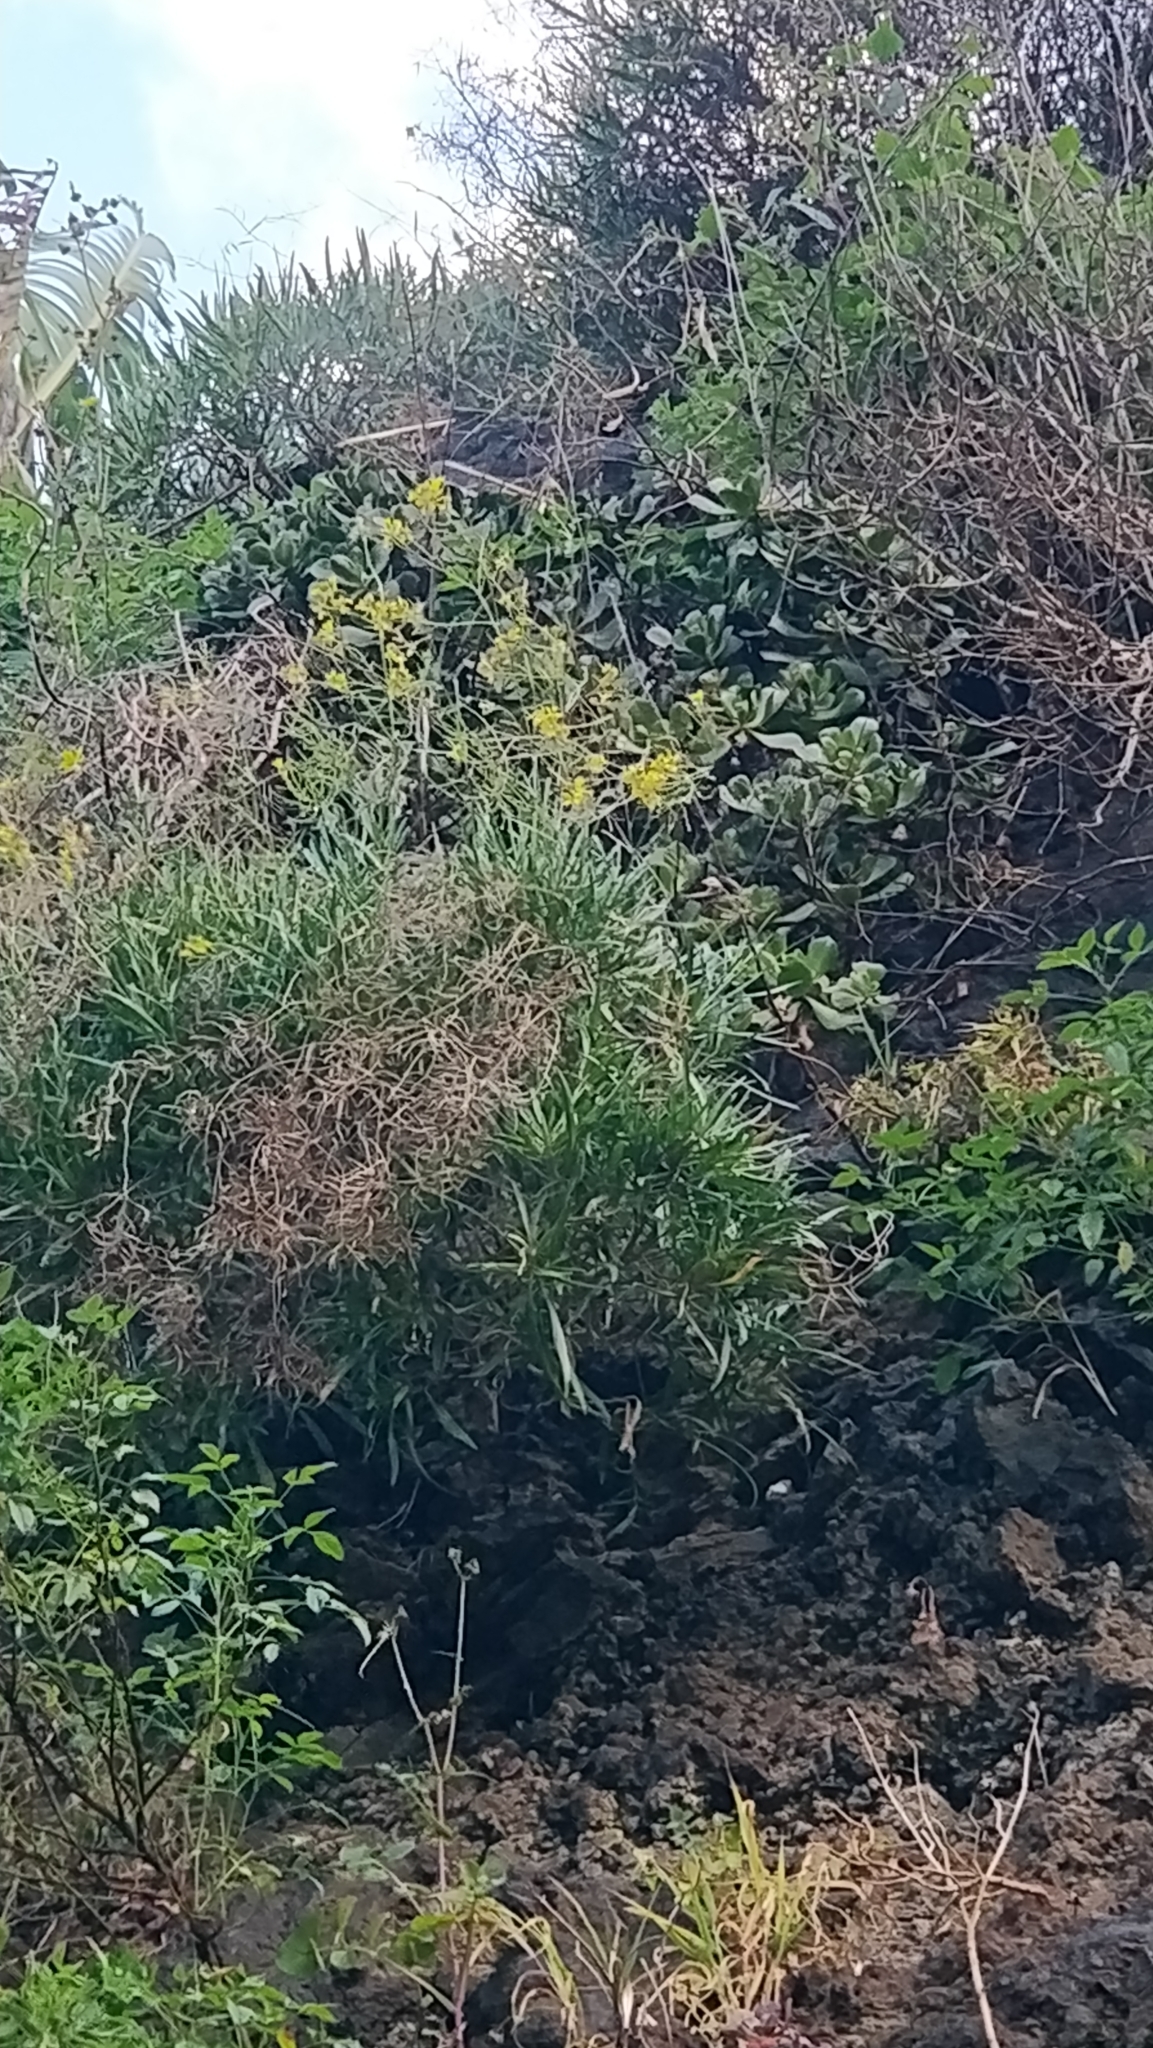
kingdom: Plantae
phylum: Tracheophyta
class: Magnoliopsida
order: Brassicales
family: Brassicaceae
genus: Sinapidendron
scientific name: Sinapidendron angustifolium
